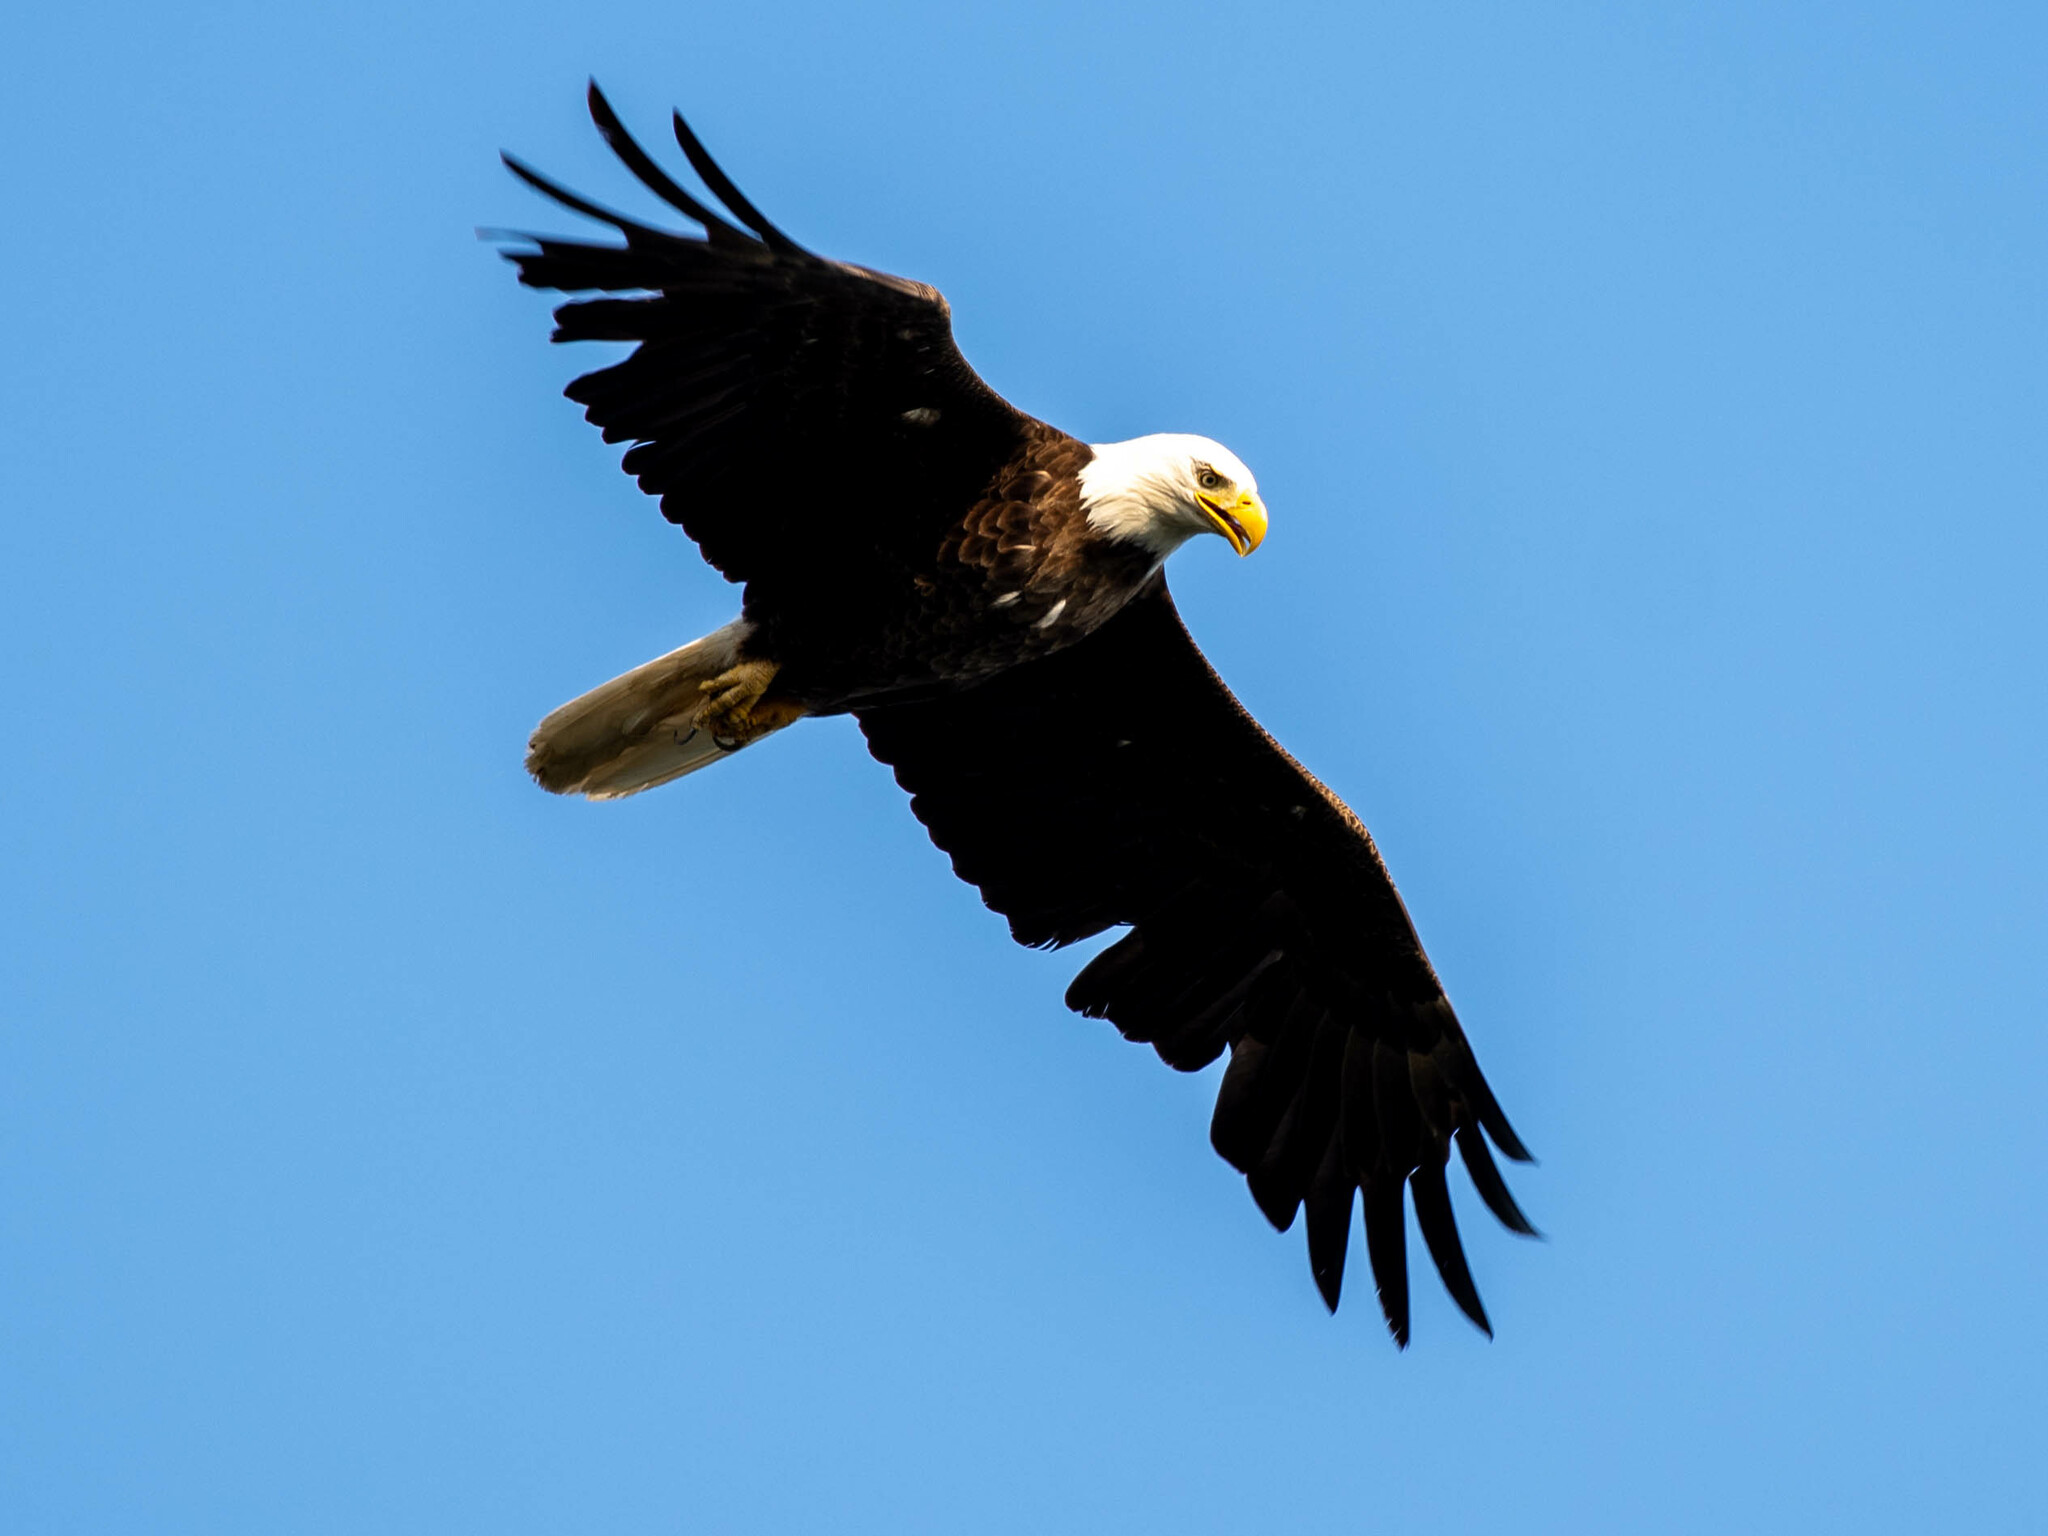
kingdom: Animalia
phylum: Chordata
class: Aves
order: Accipitriformes
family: Accipitridae
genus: Haliaeetus
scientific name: Haliaeetus leucocephalus
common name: Bald eagle
